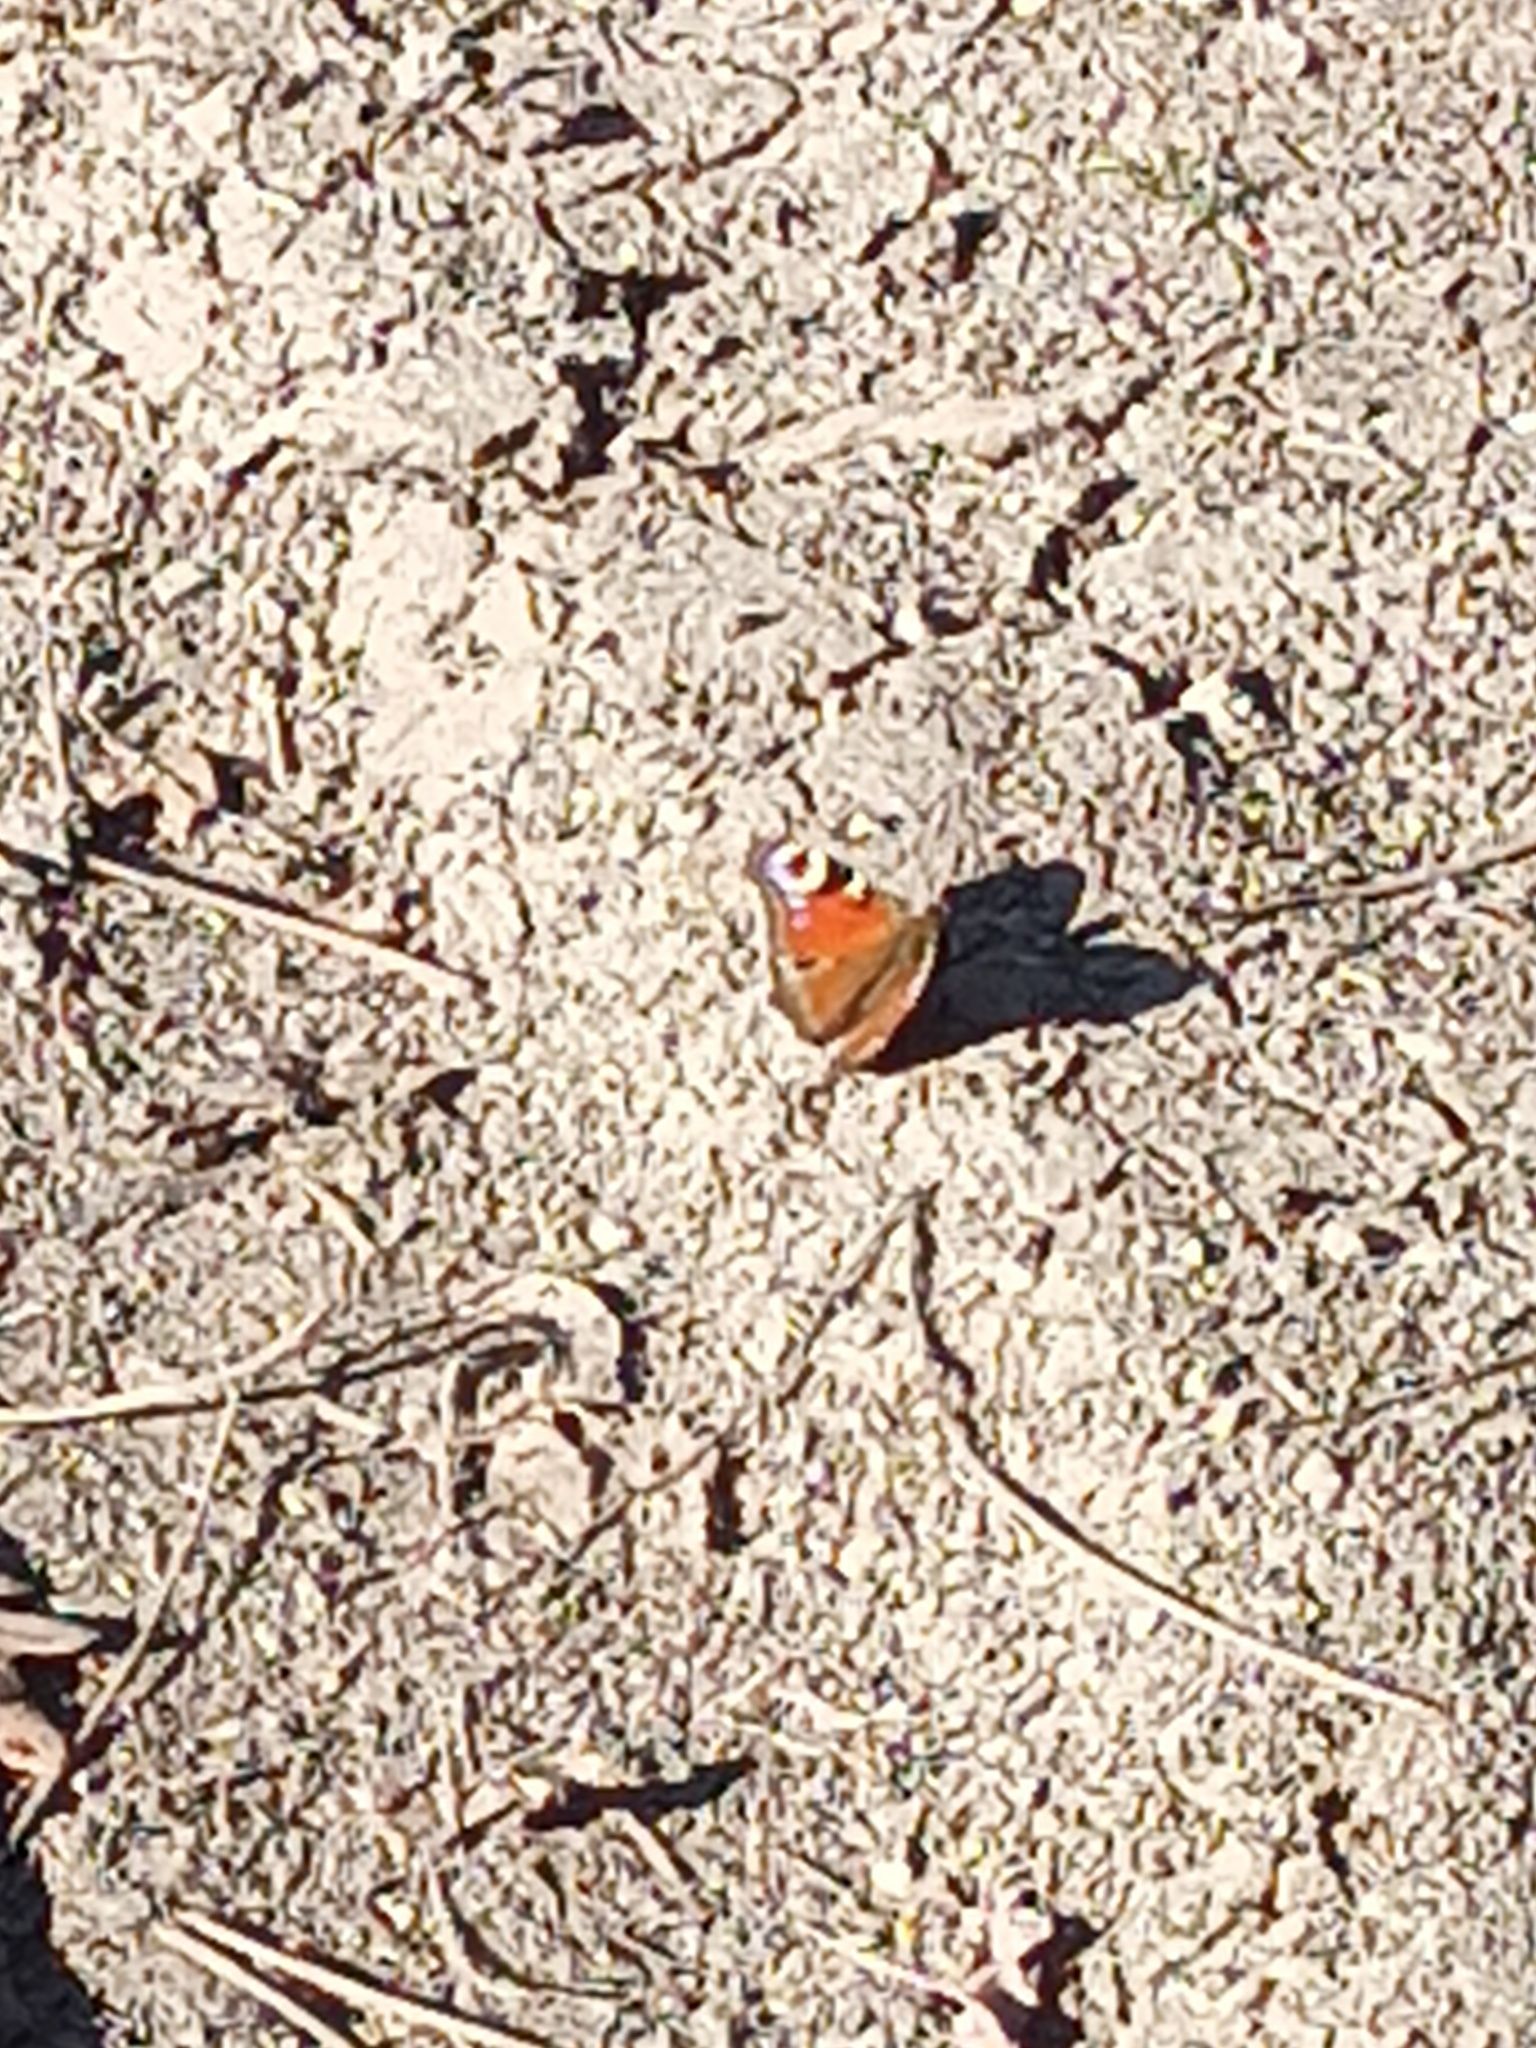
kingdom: Animalia
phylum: Arthropoda
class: Insecta
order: Lepidoptera
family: Nymphalidae
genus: Aglais
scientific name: Aglais io
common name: Peacock
